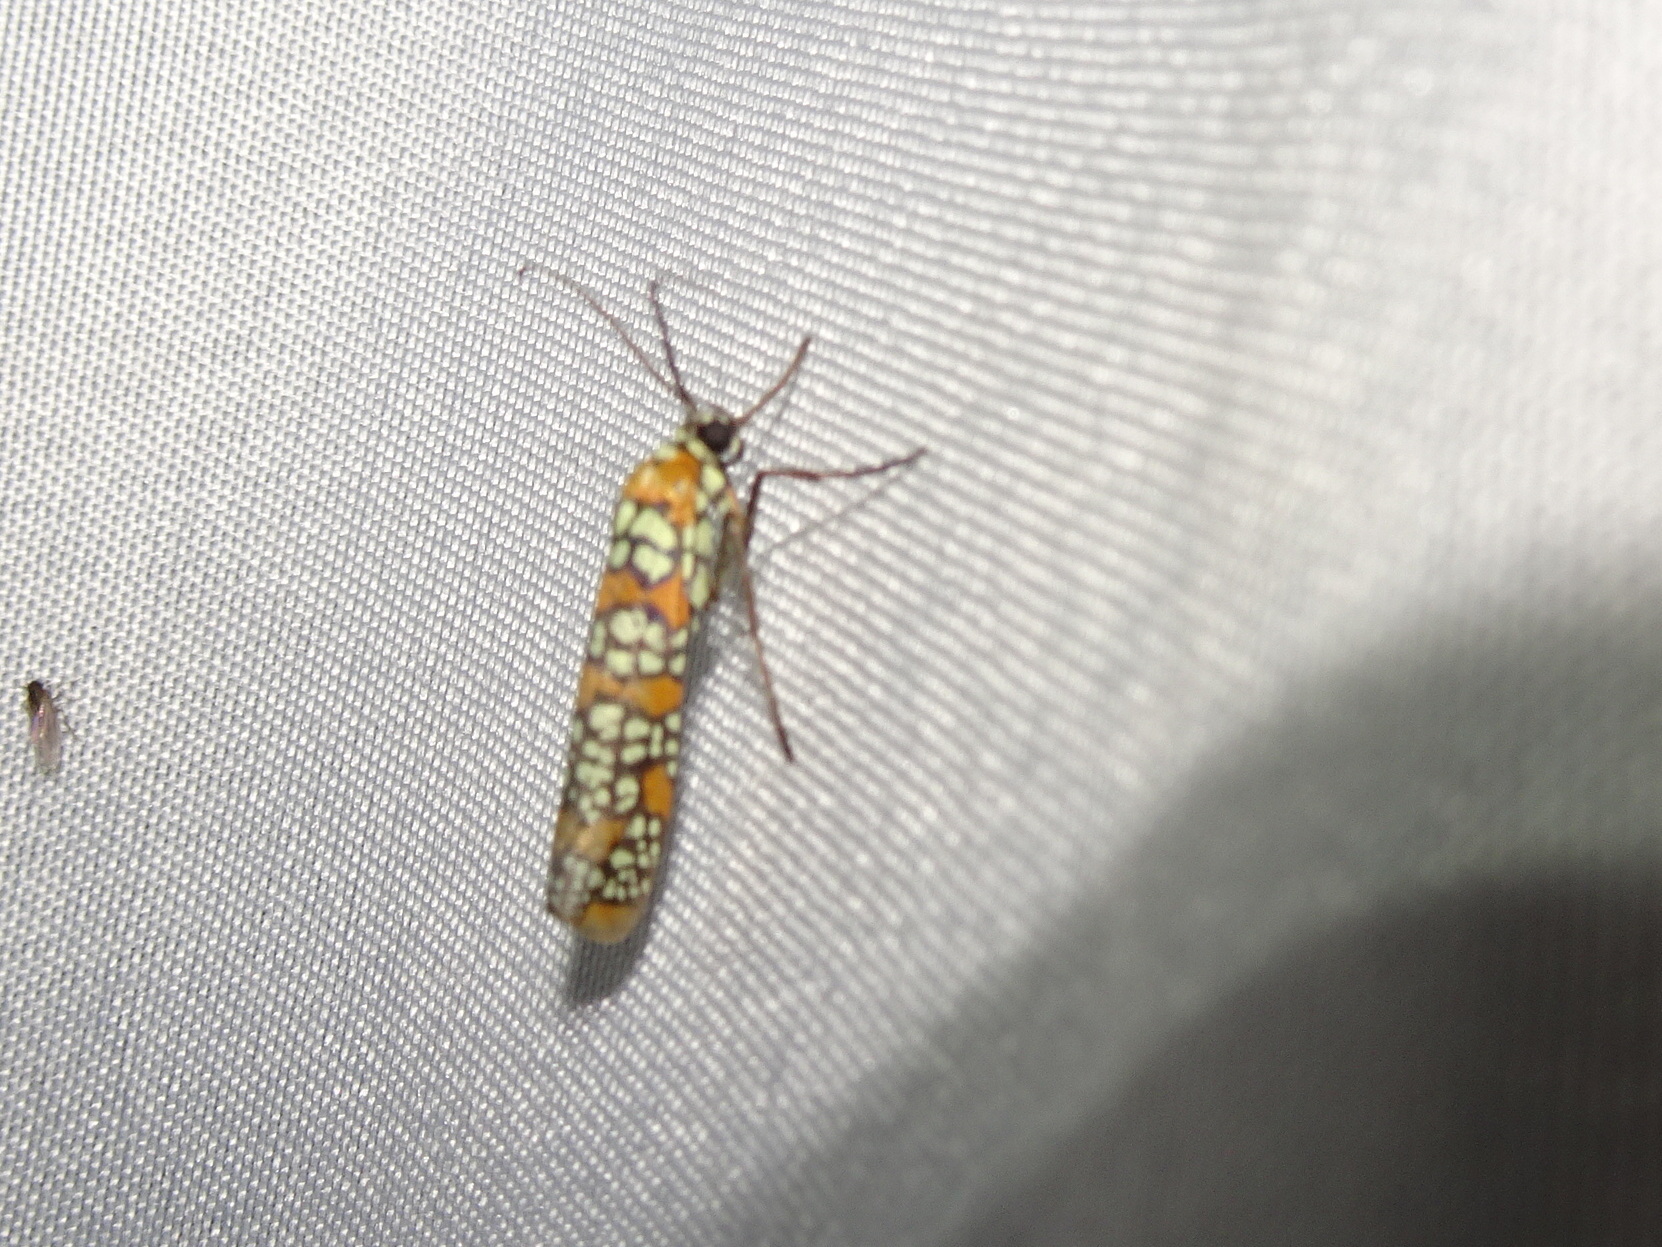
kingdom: Animalia
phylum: Arthropoda
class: Insecta
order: Lepidoptera
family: Attevidae
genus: Atteva
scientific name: Atteva punctella
